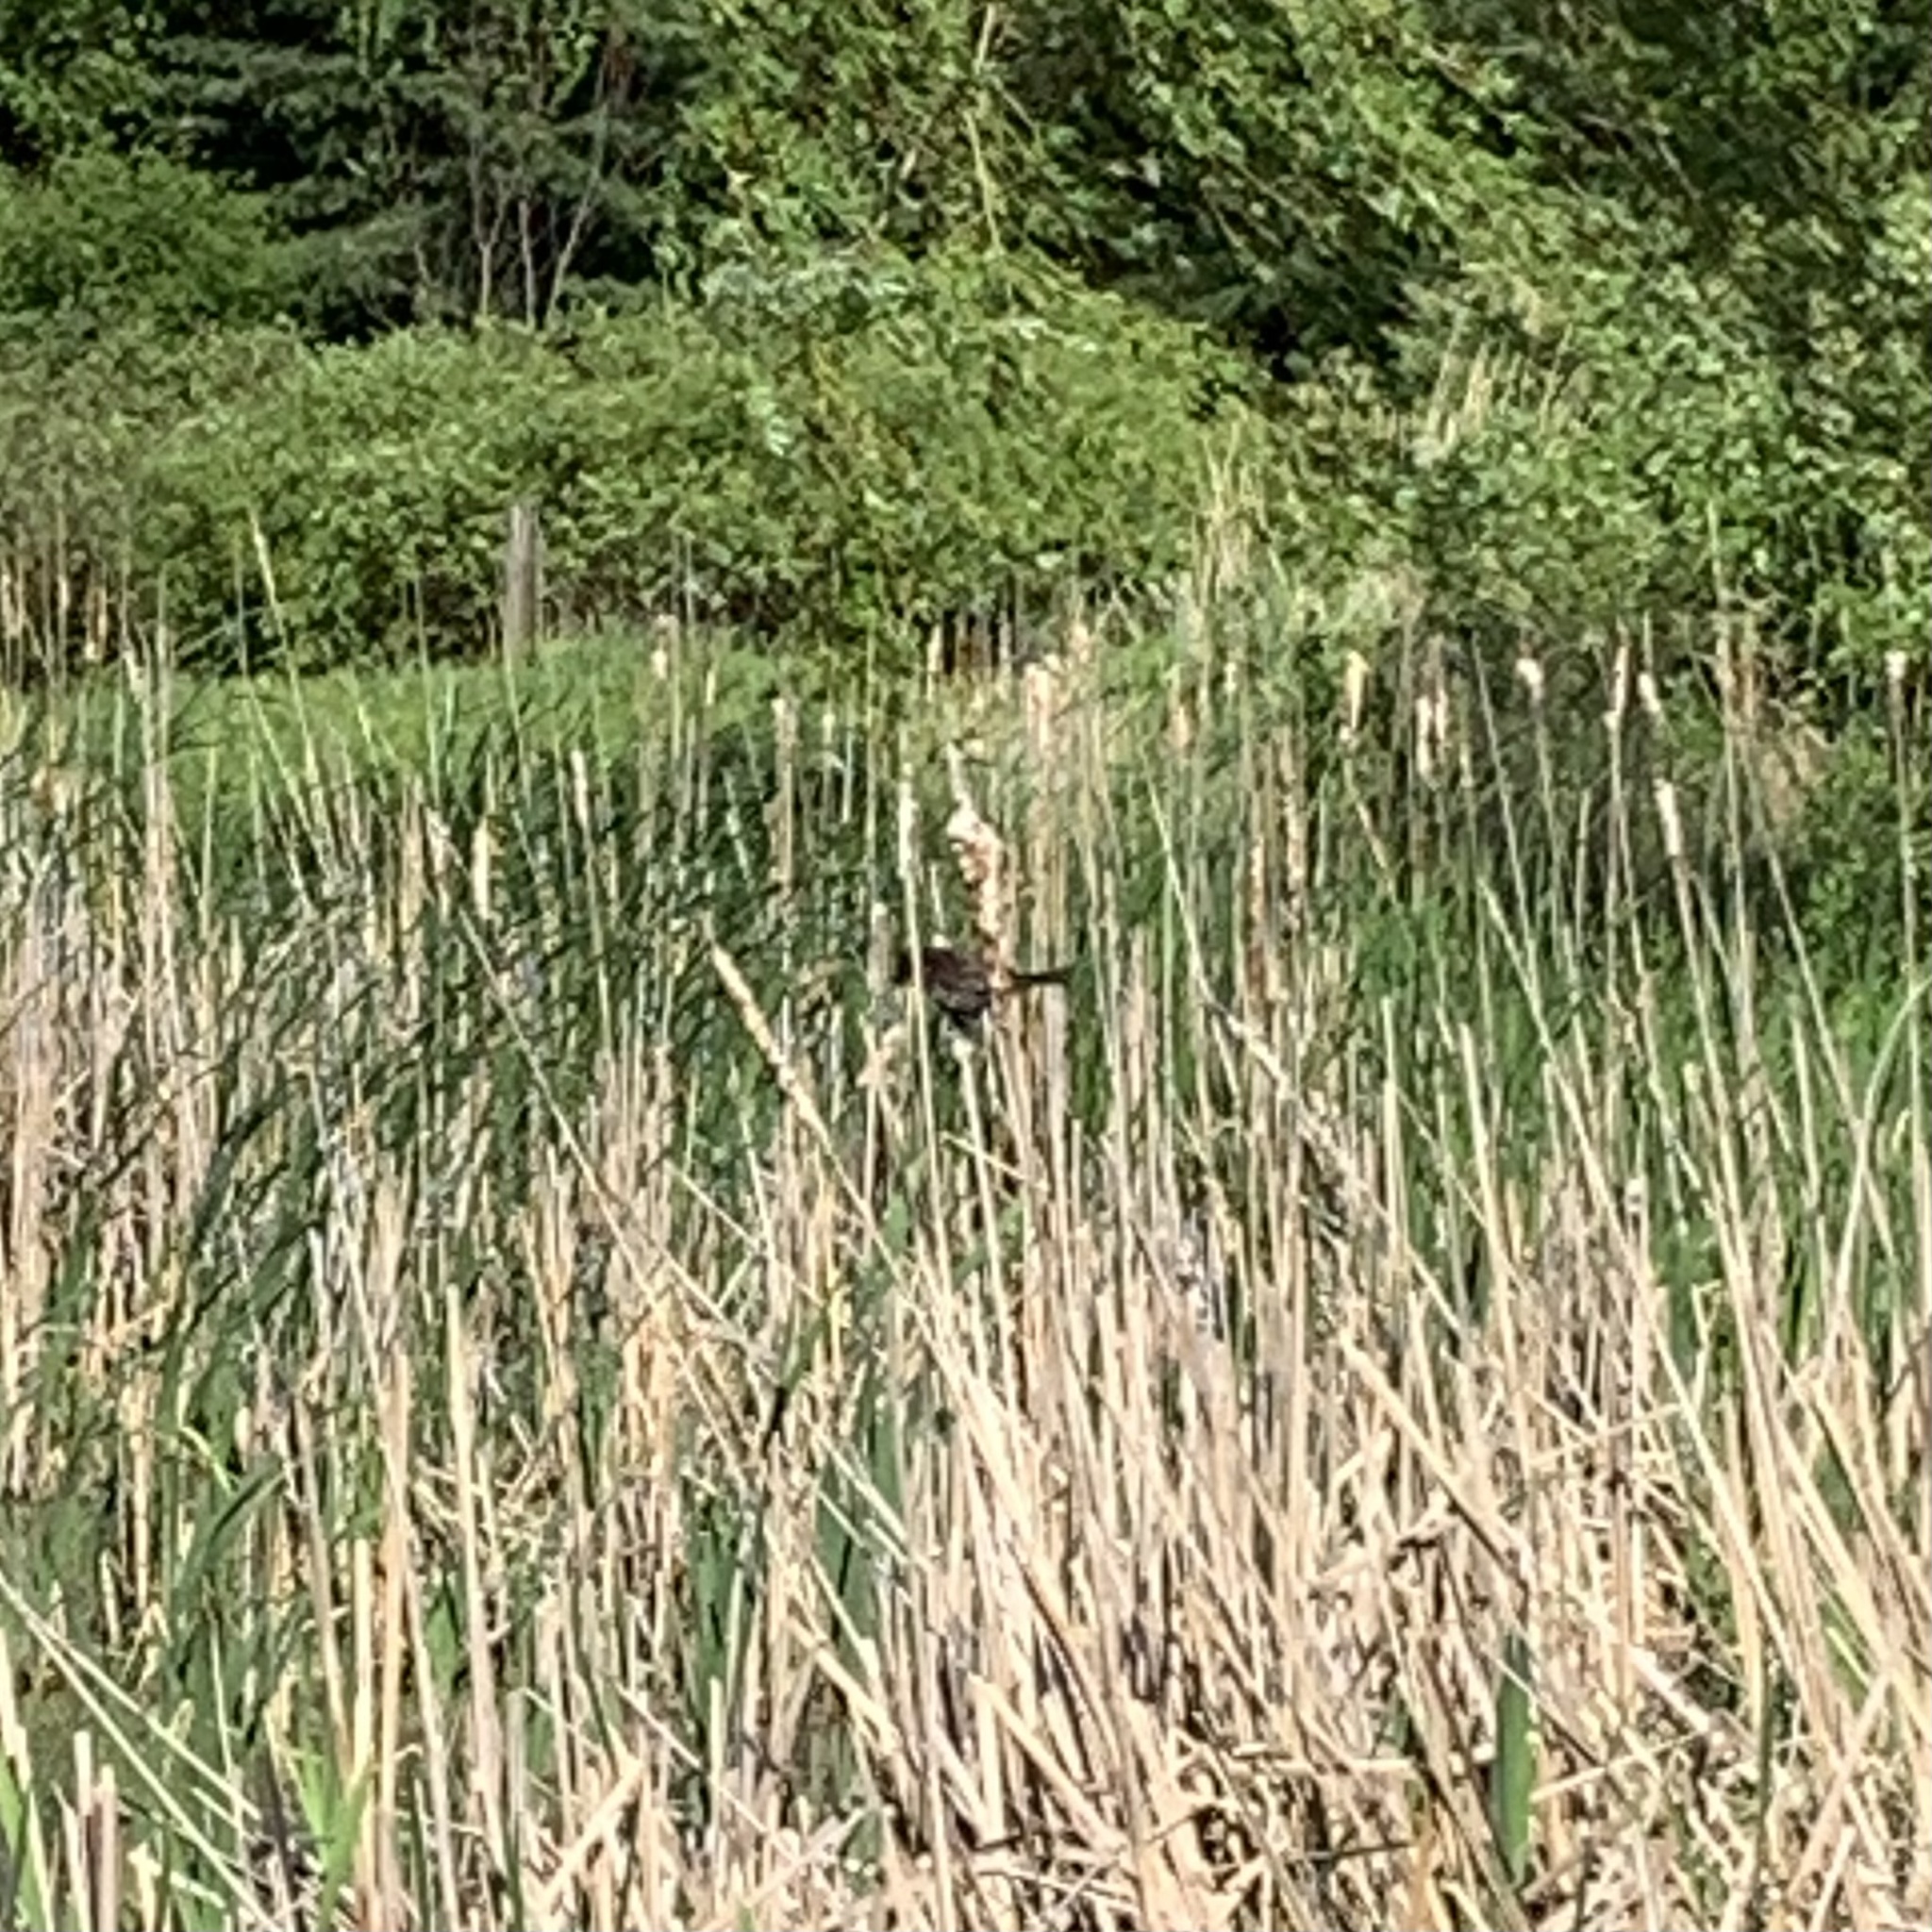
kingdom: Animalia
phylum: Chordata
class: Aves
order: Passeriformes
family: Icteridae
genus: Agelaius
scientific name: Agelaius phoeniceus
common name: Red-winged blackbird
